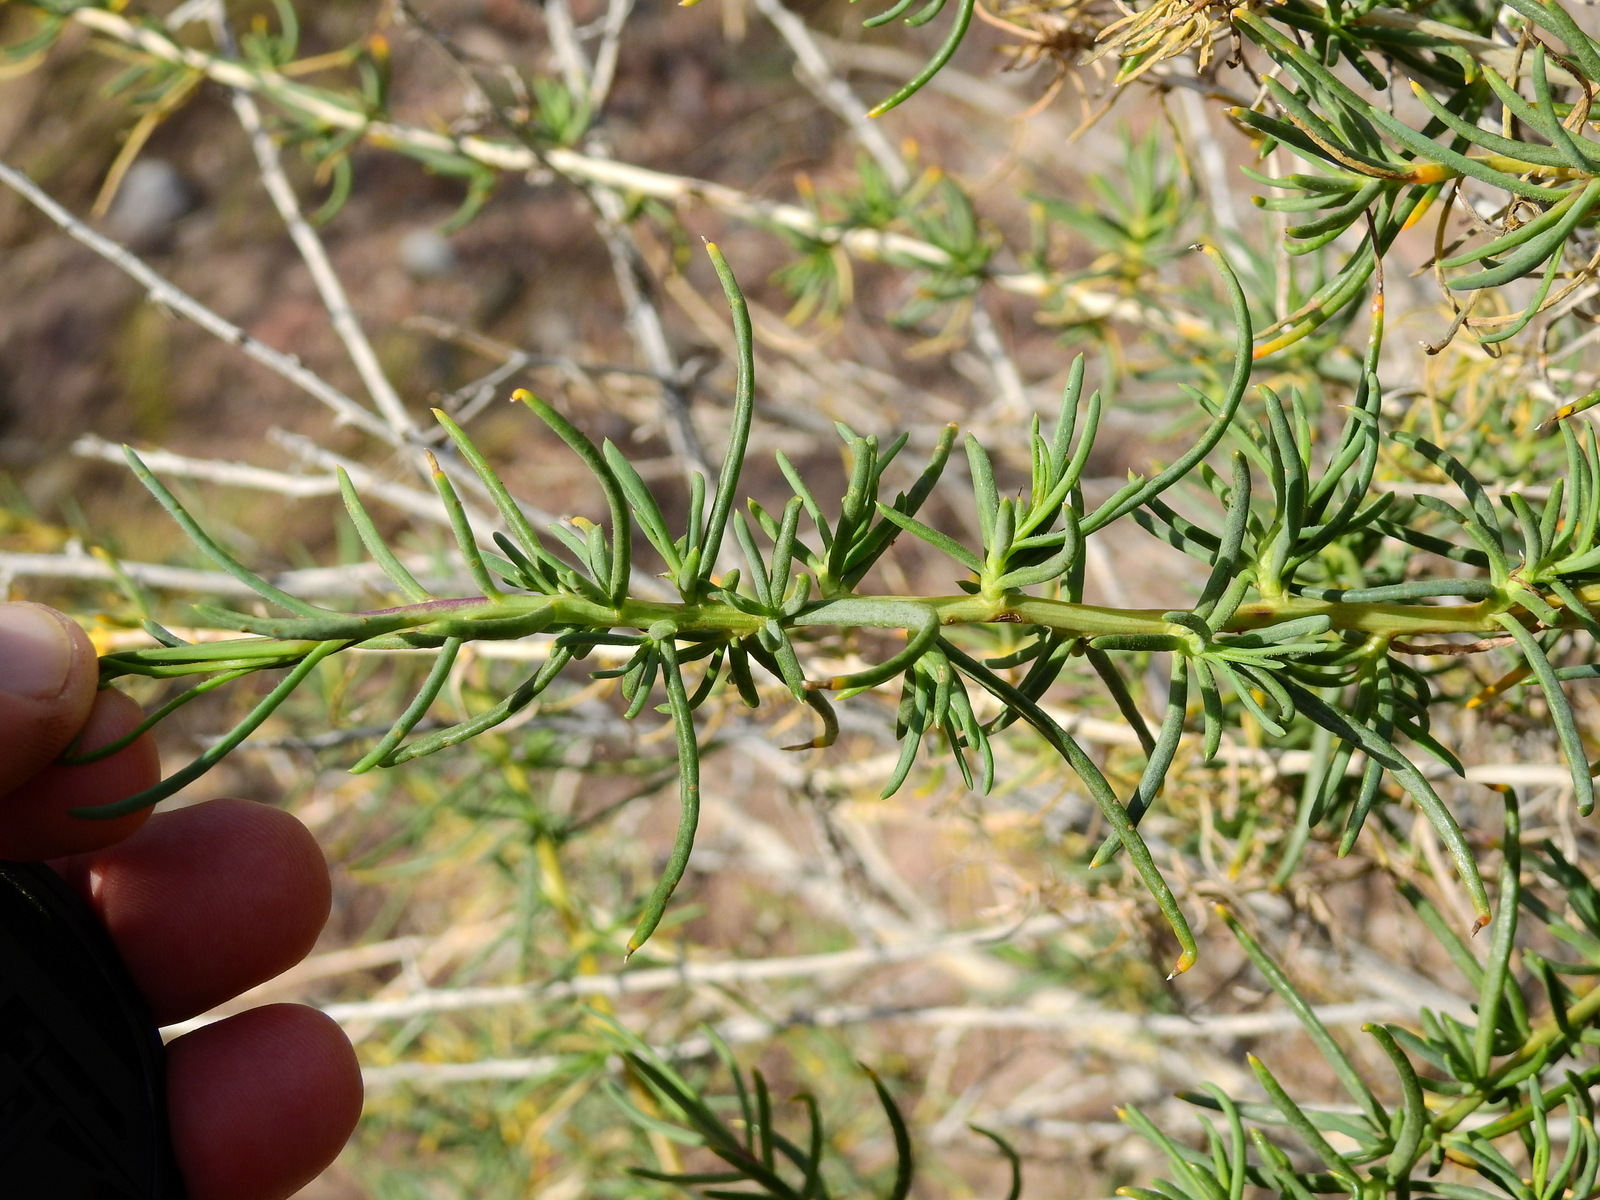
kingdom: Plantae
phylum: Tracheophyta
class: Magnoliopsida
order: Asterales
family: Asteraceae
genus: Senecio
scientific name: Senecio subulatus
